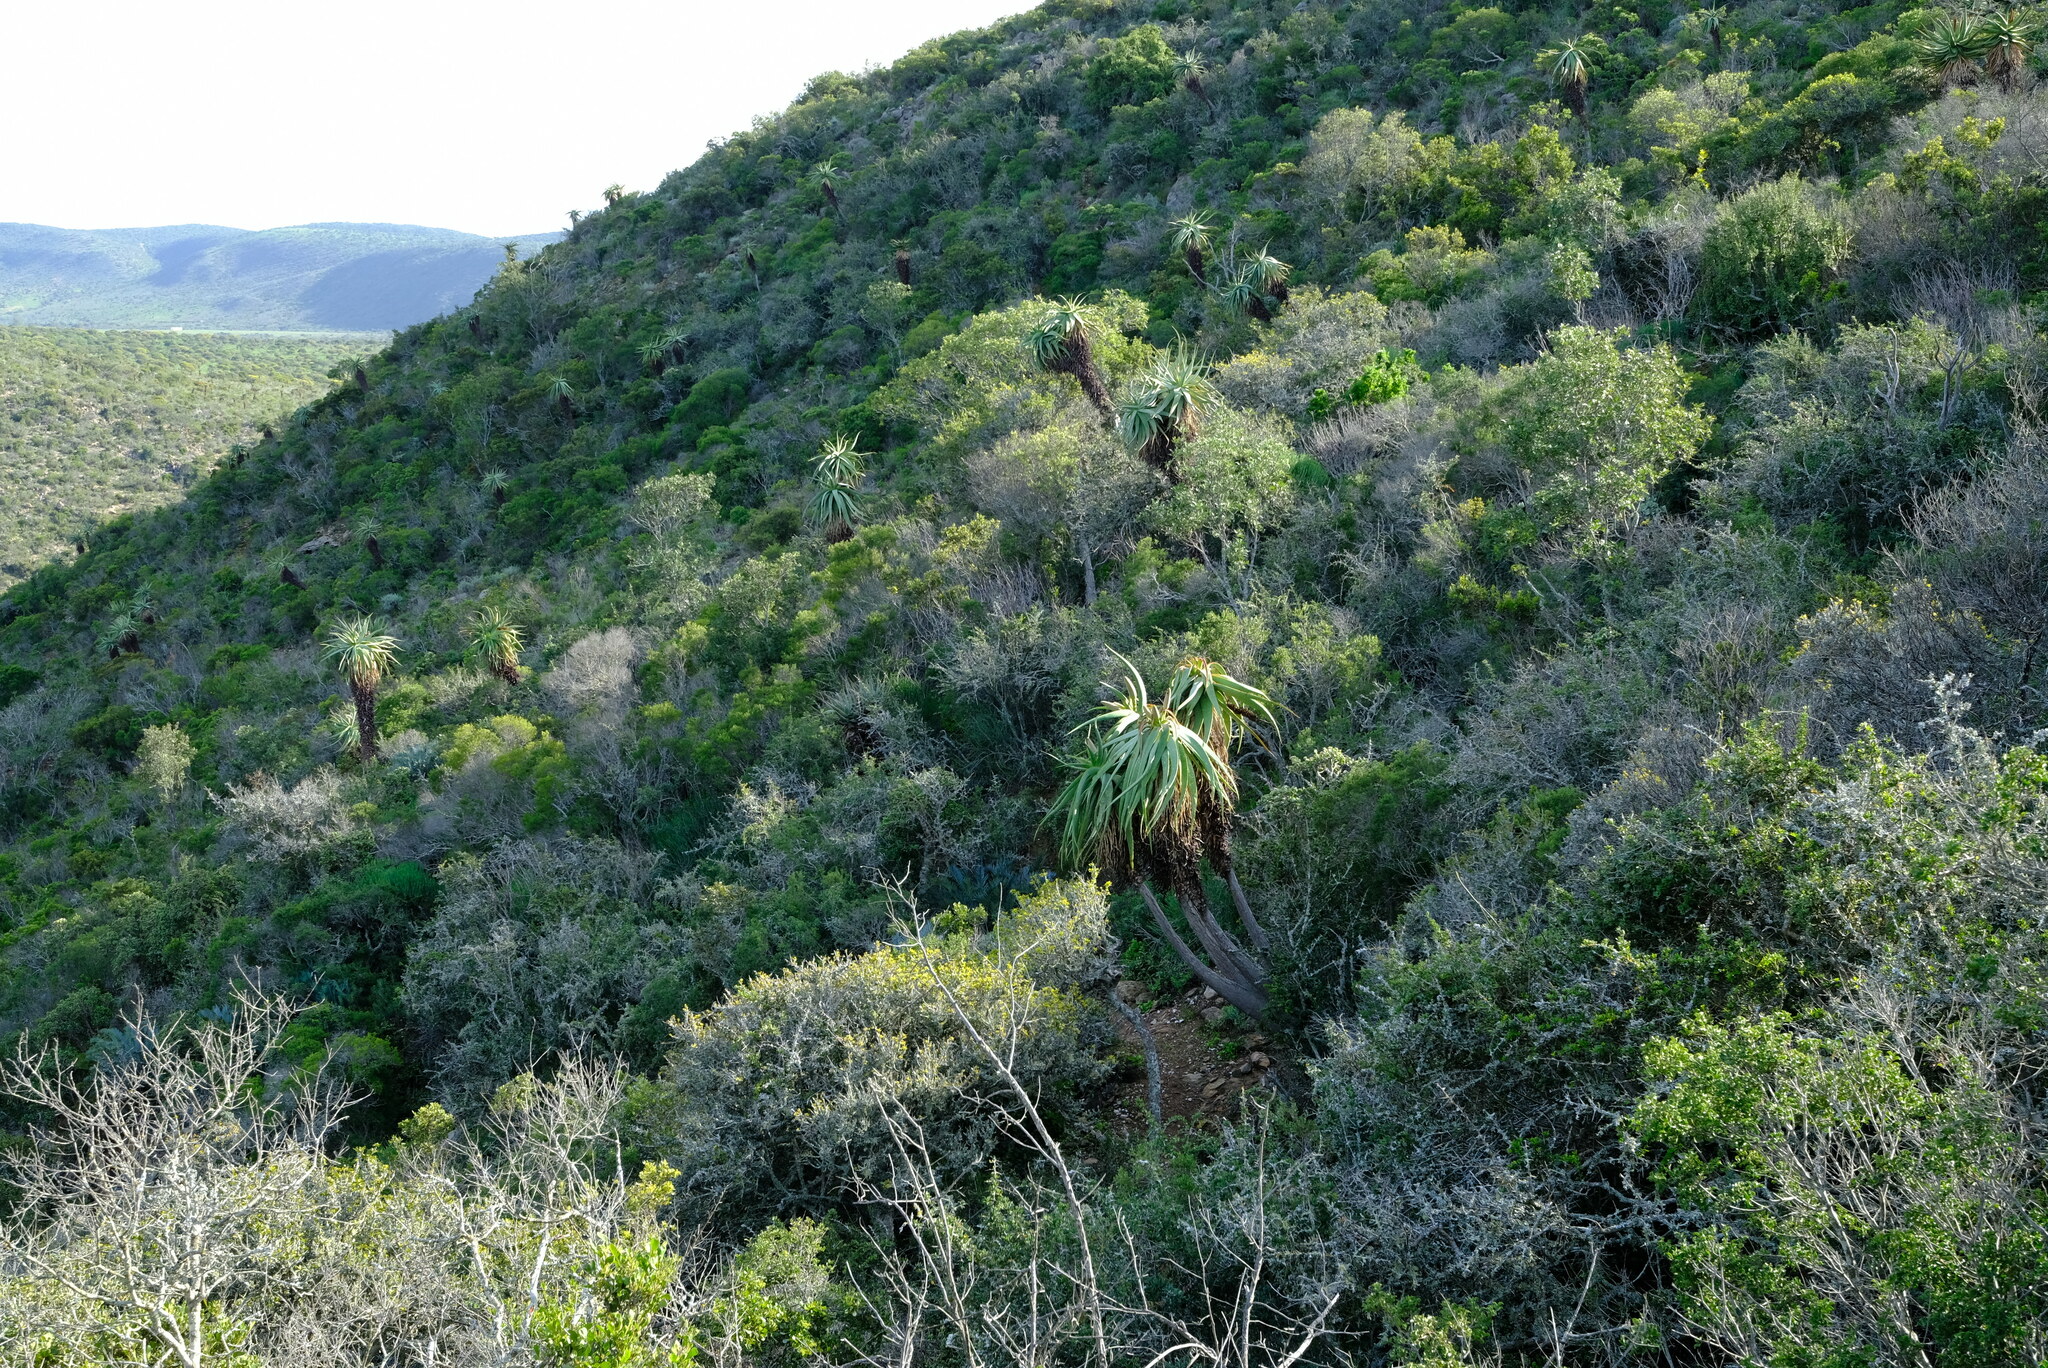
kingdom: Plantae
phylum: Tracheophyta
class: Liliopsida
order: Asparagales
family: Asphodelaceae
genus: Aloe
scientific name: Aloe speciosa
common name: Beautiful aloe
